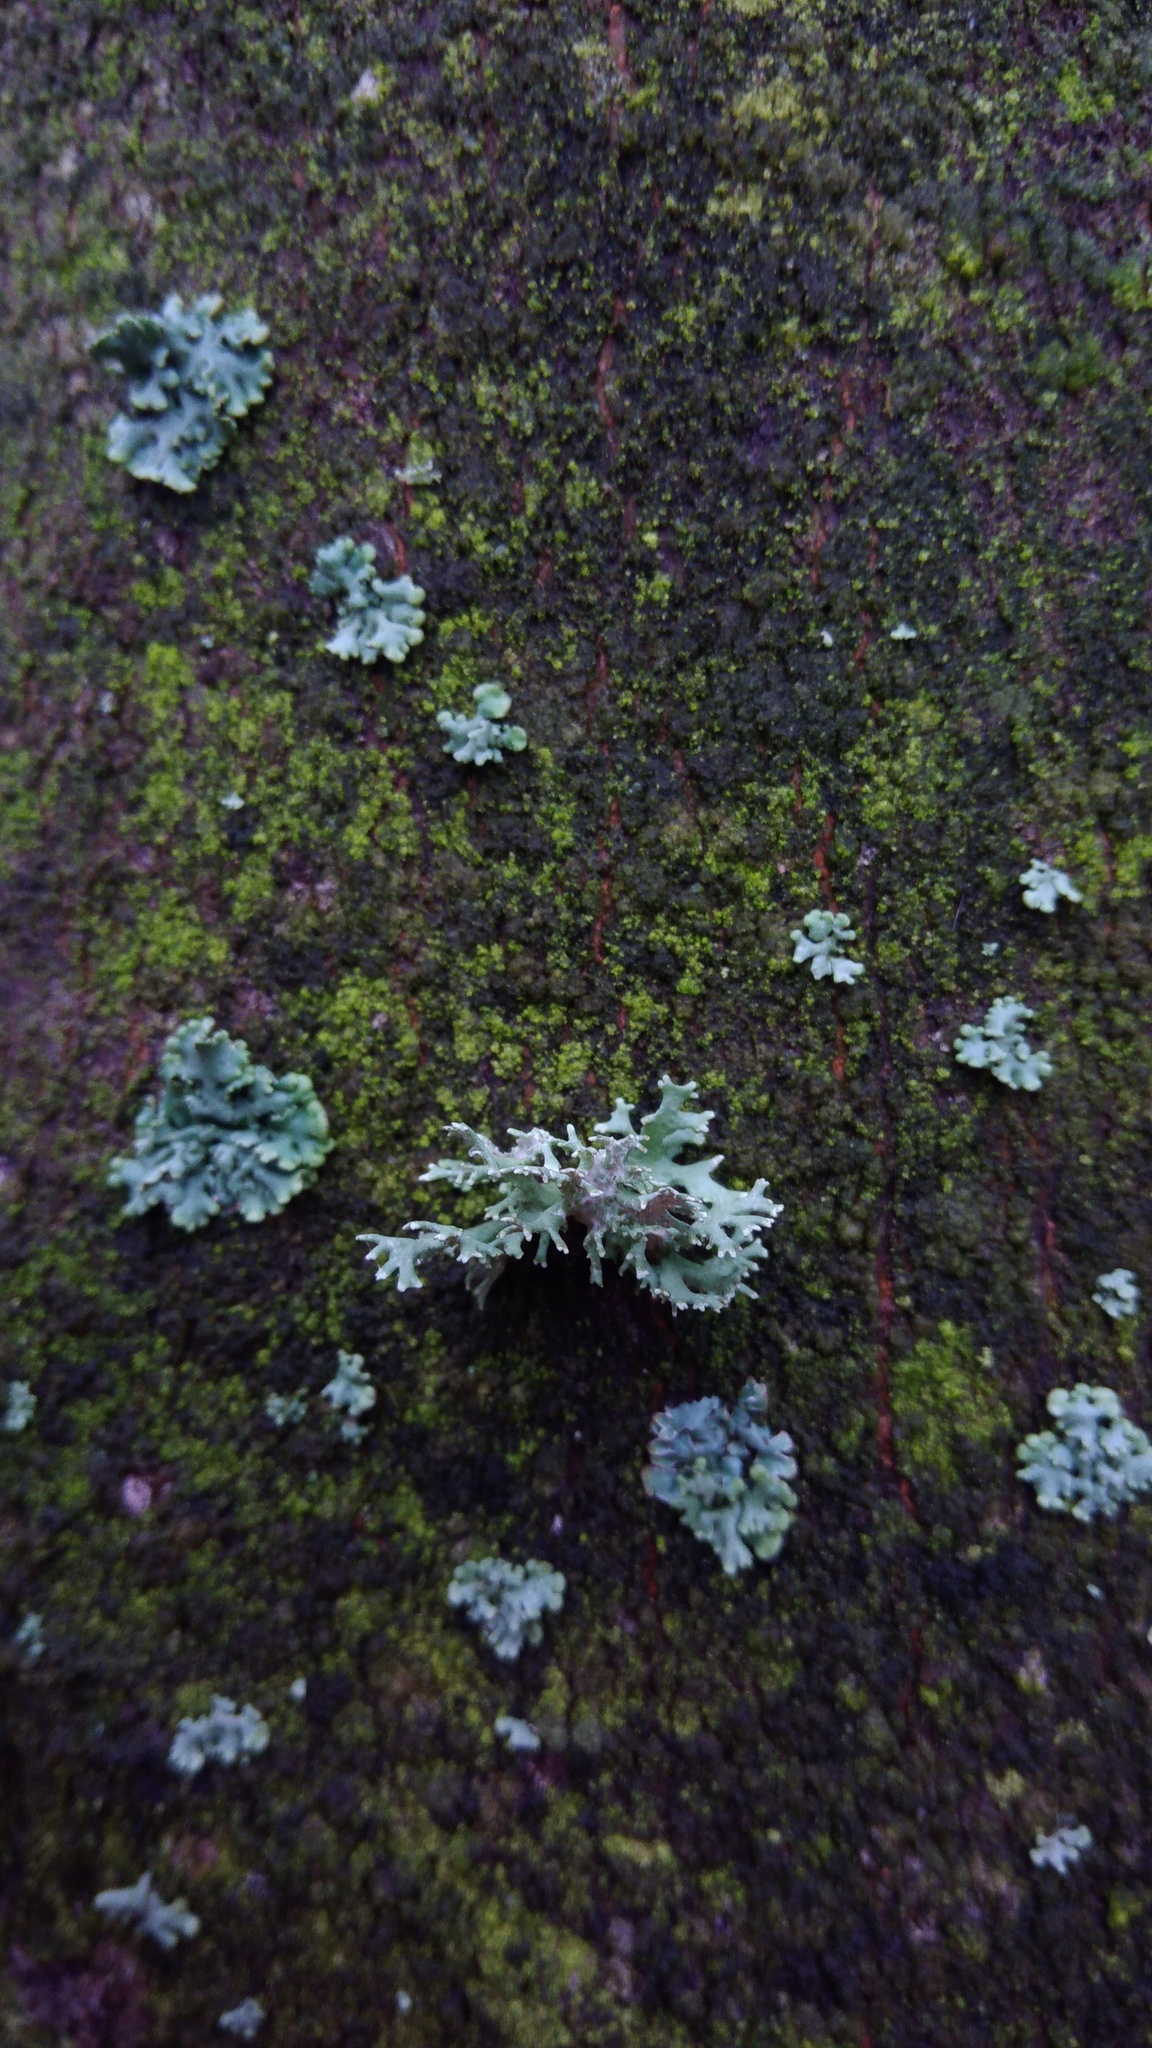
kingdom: Fungi
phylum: Ascomycota
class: Lecanoromycetes
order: Lecanorales
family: Parmeliaceae
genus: Evernia
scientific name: Evernia prunastri
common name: Oak moss
